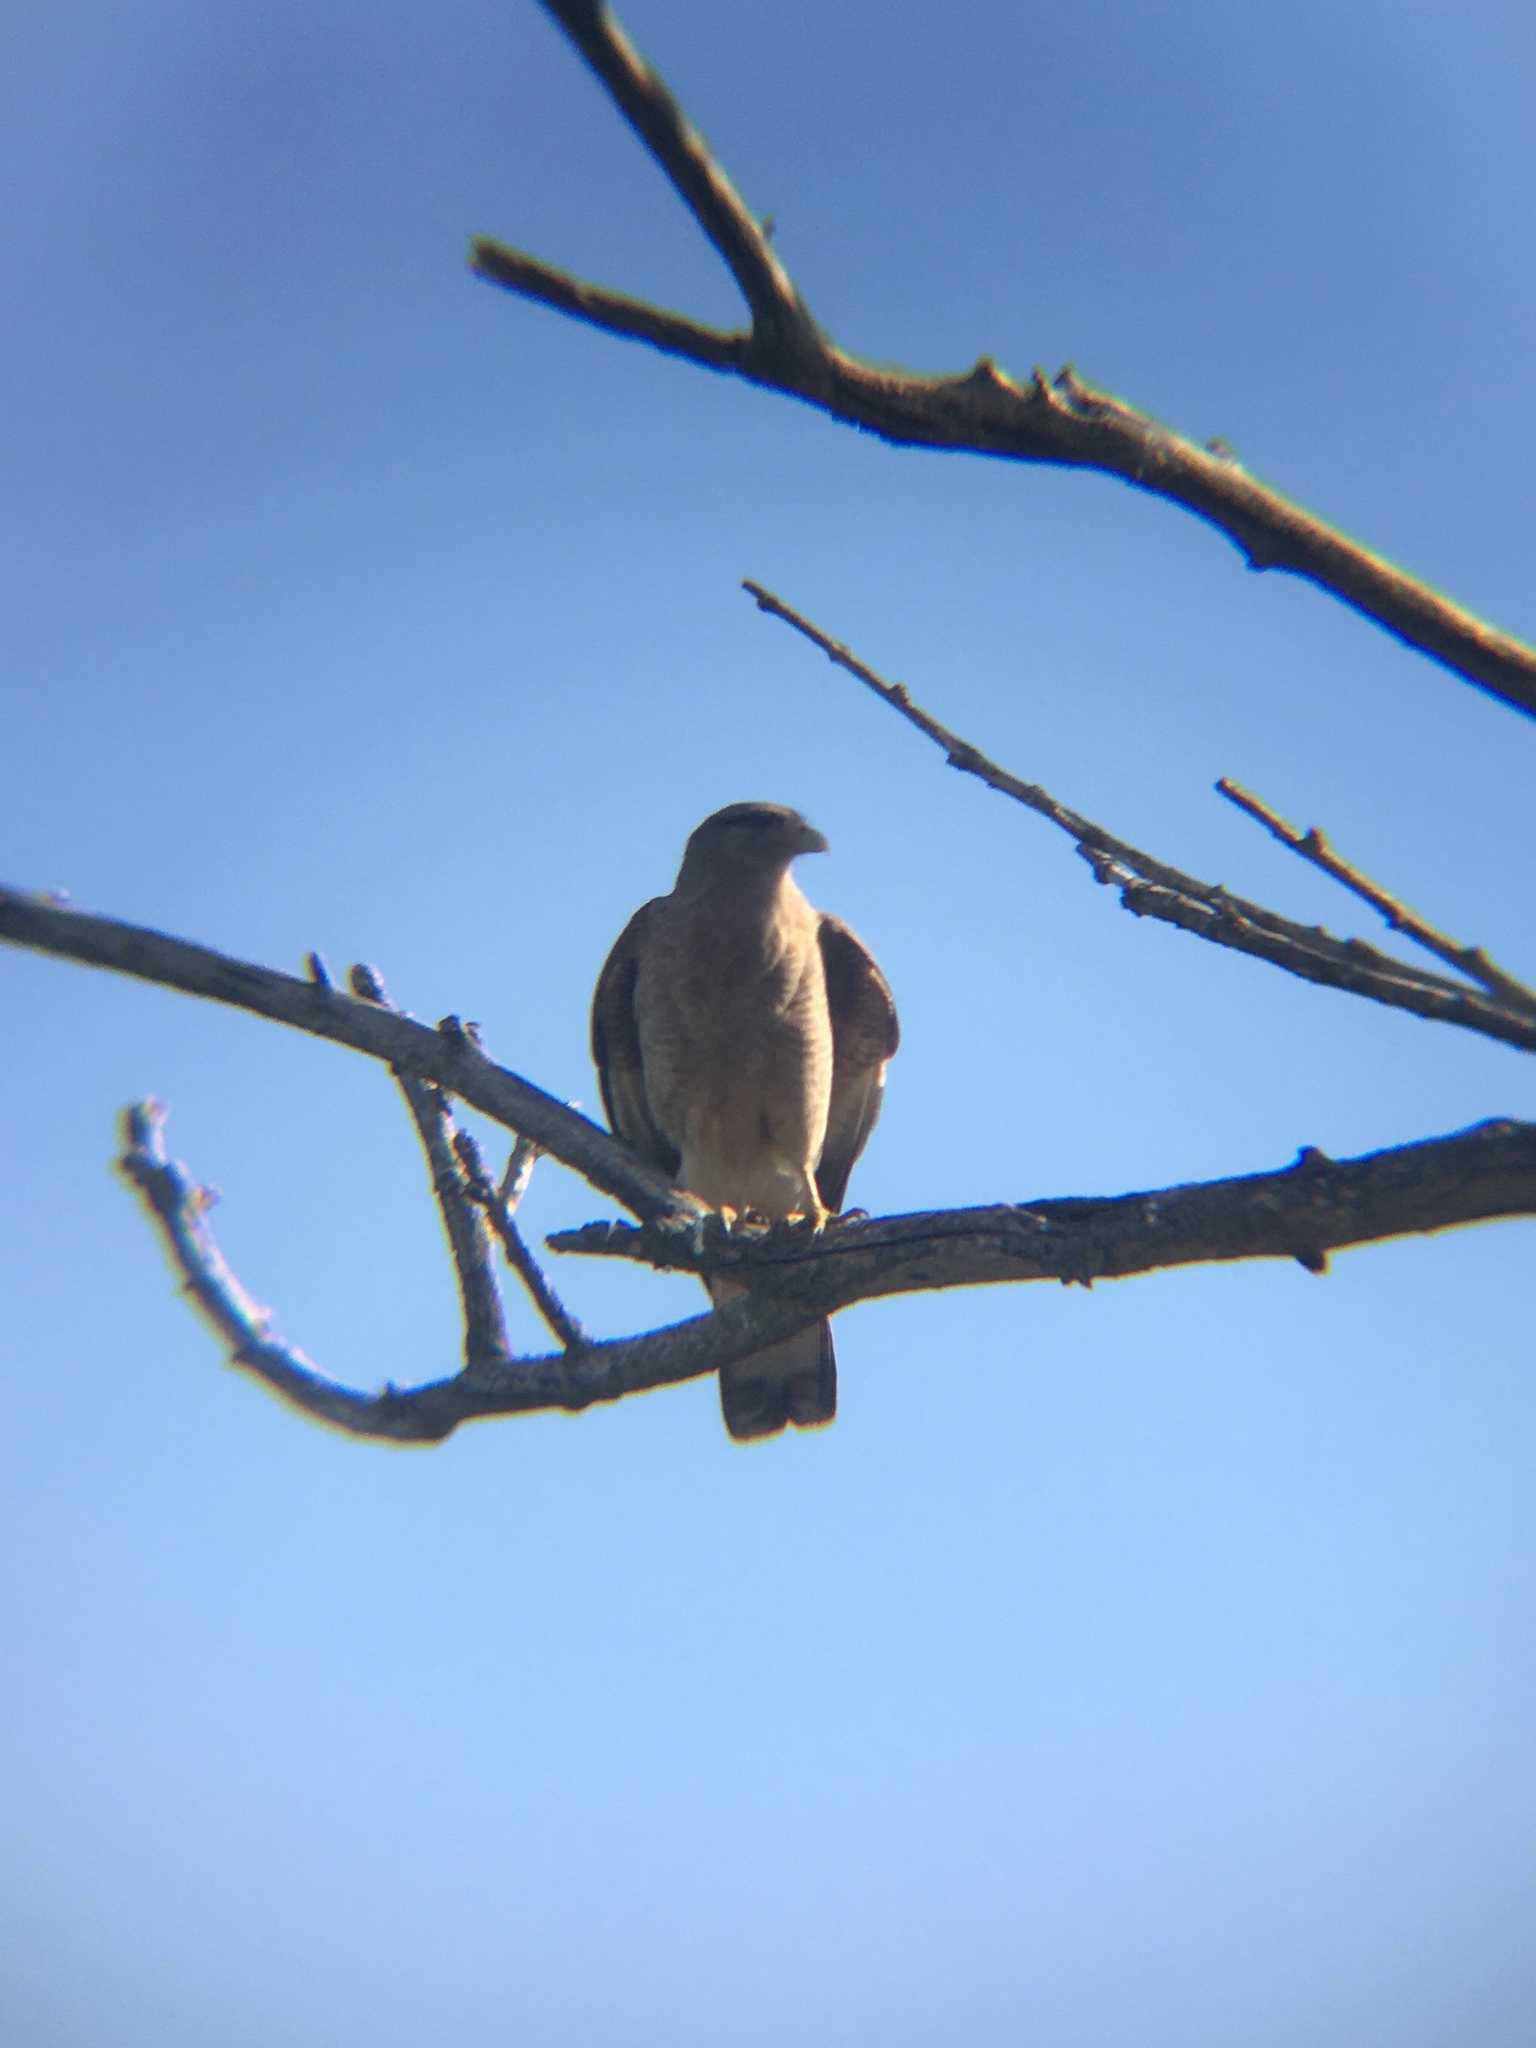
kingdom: Animalia
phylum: Chordata
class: Aves
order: Falconiformes
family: Falconidae
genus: Daptrius
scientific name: Daptrius
